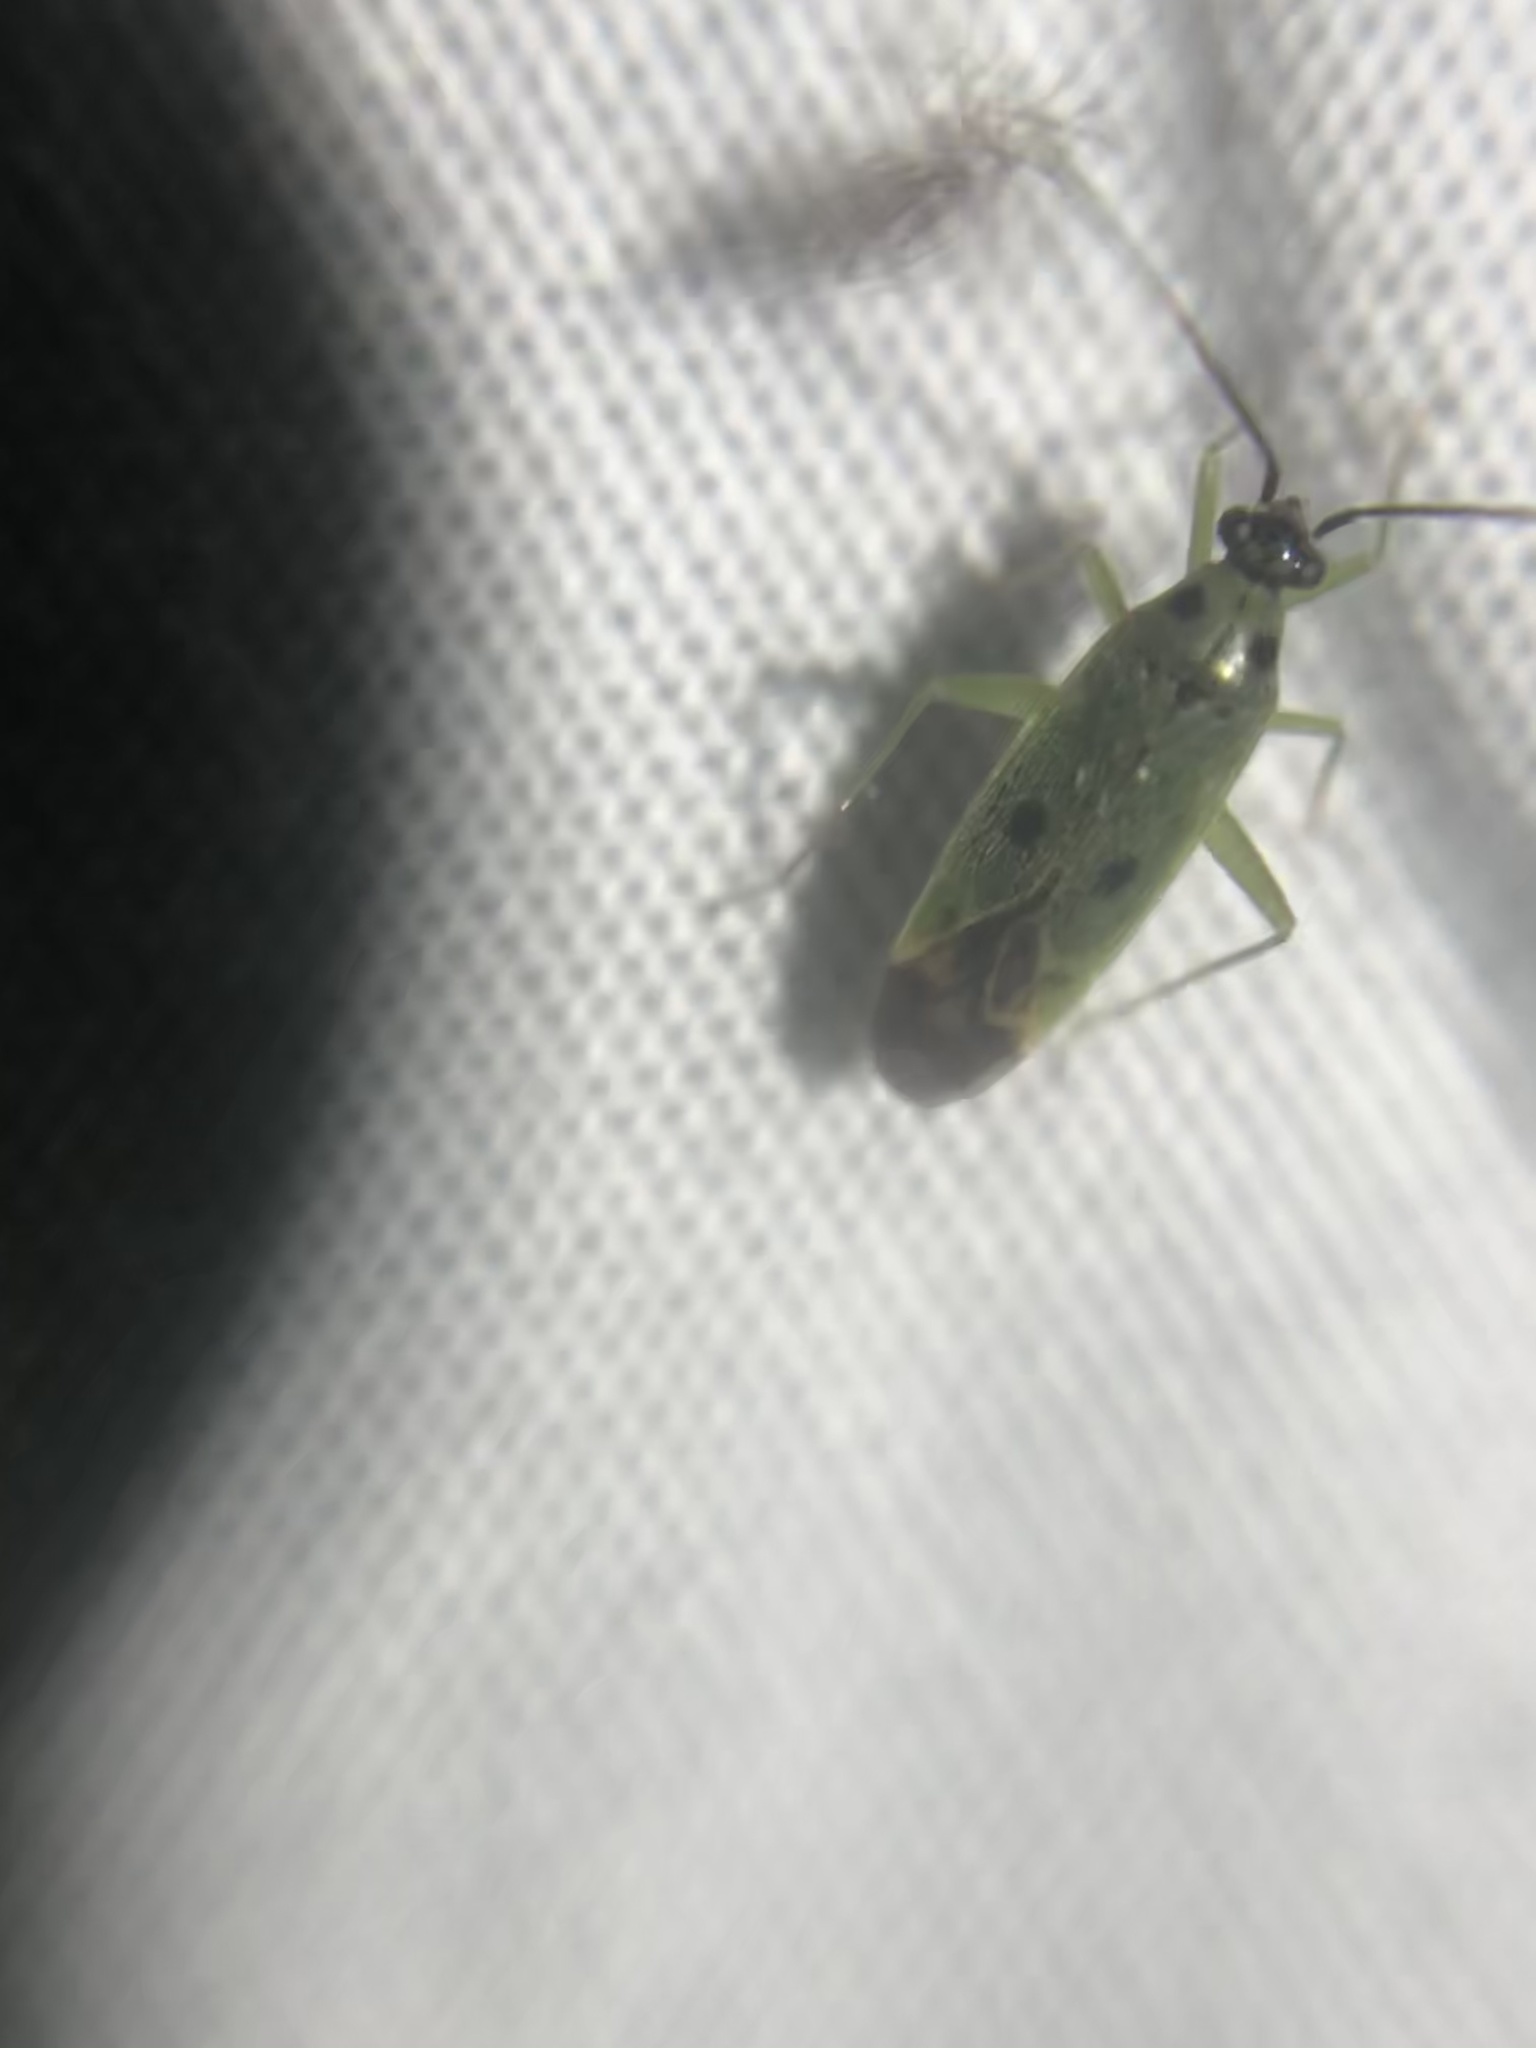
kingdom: Animalia
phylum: Arthropoda
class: Insecta
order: Hemiptera
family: Miridae
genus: Ilnacora
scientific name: Ilnacora nicholi
